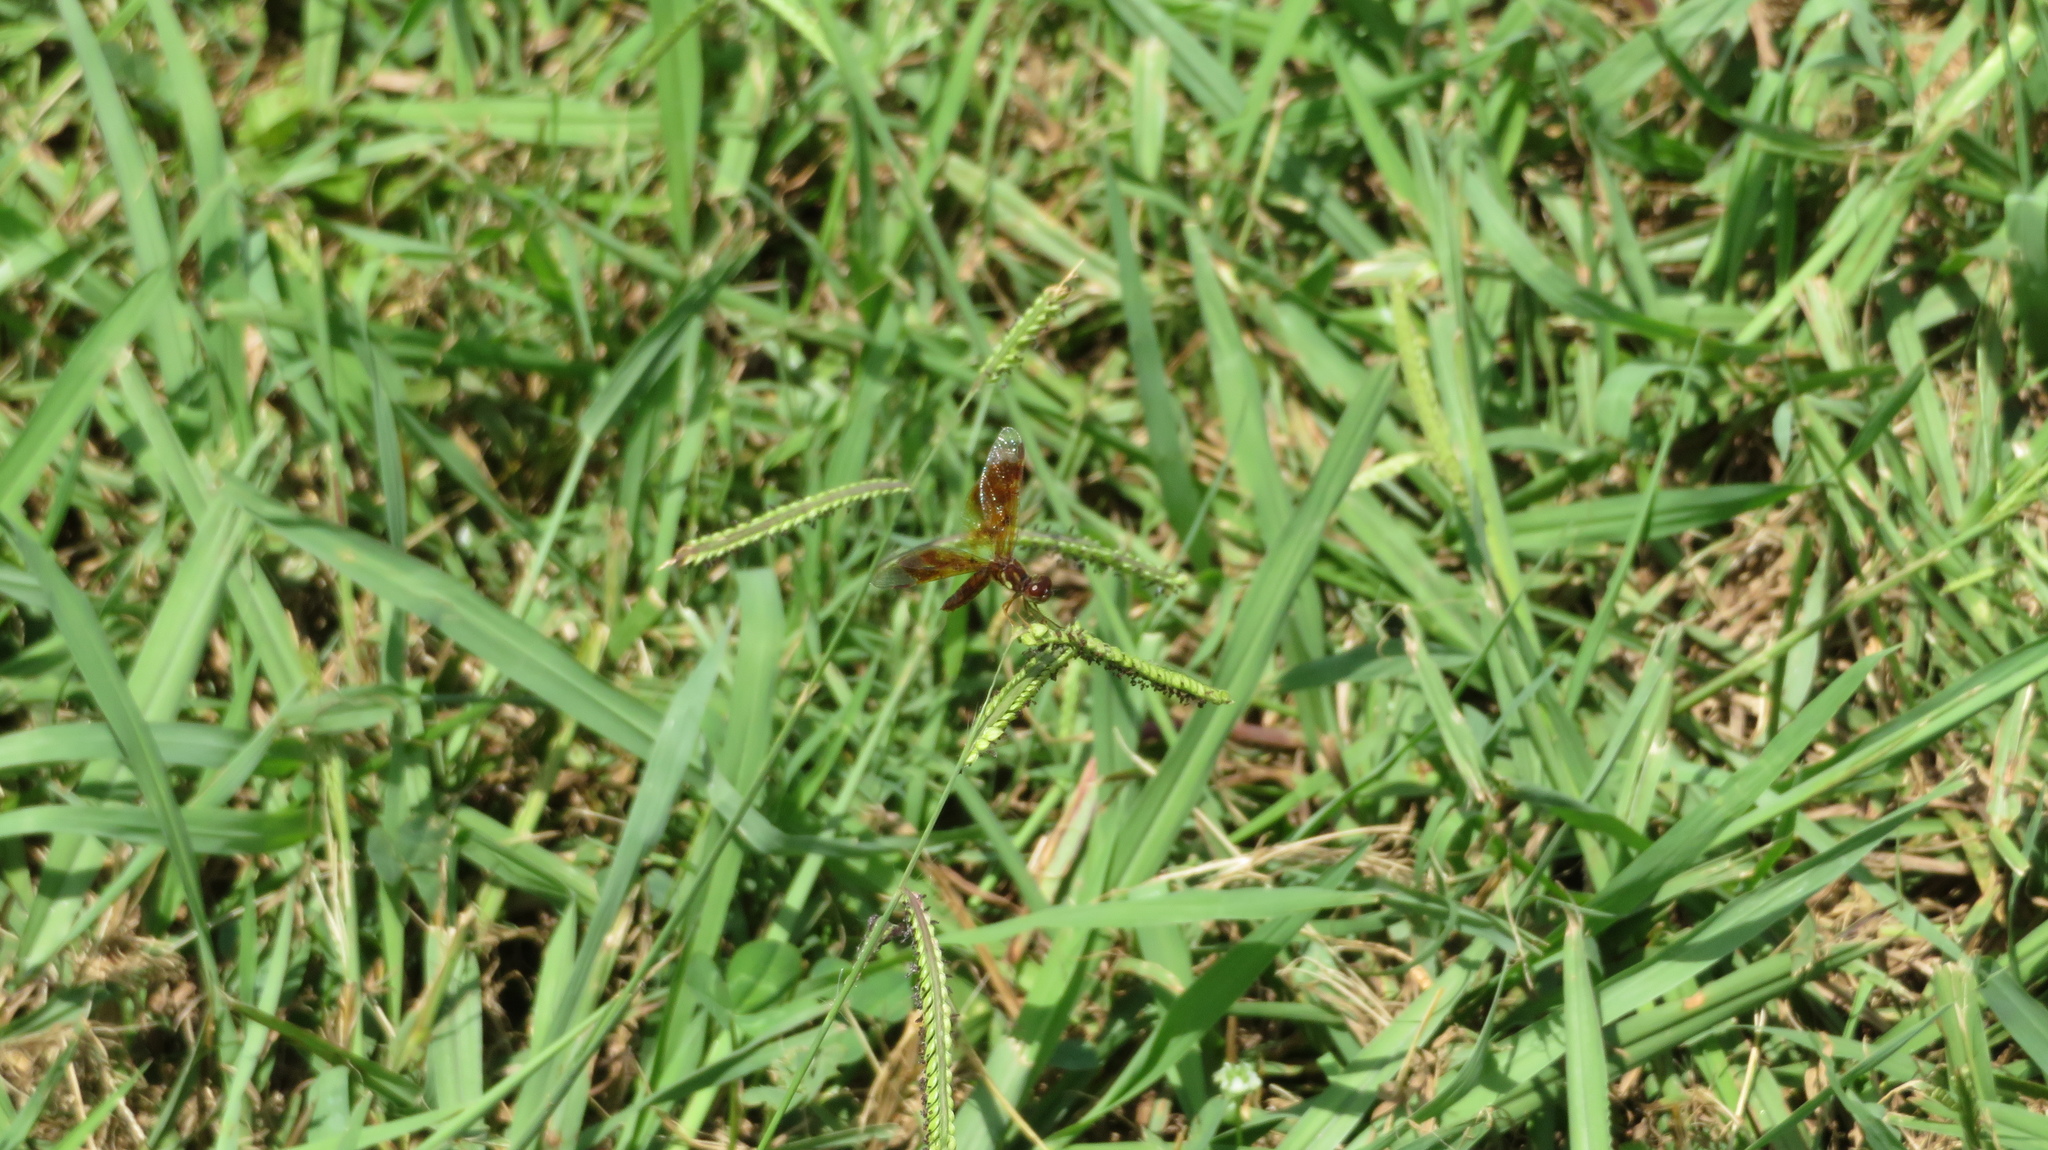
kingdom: Animalia
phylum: Arthropoda
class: Insecta
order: Odonata
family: Libellulidae
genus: Perithemis
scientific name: Perithemis tenera
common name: Eastern amberwing
